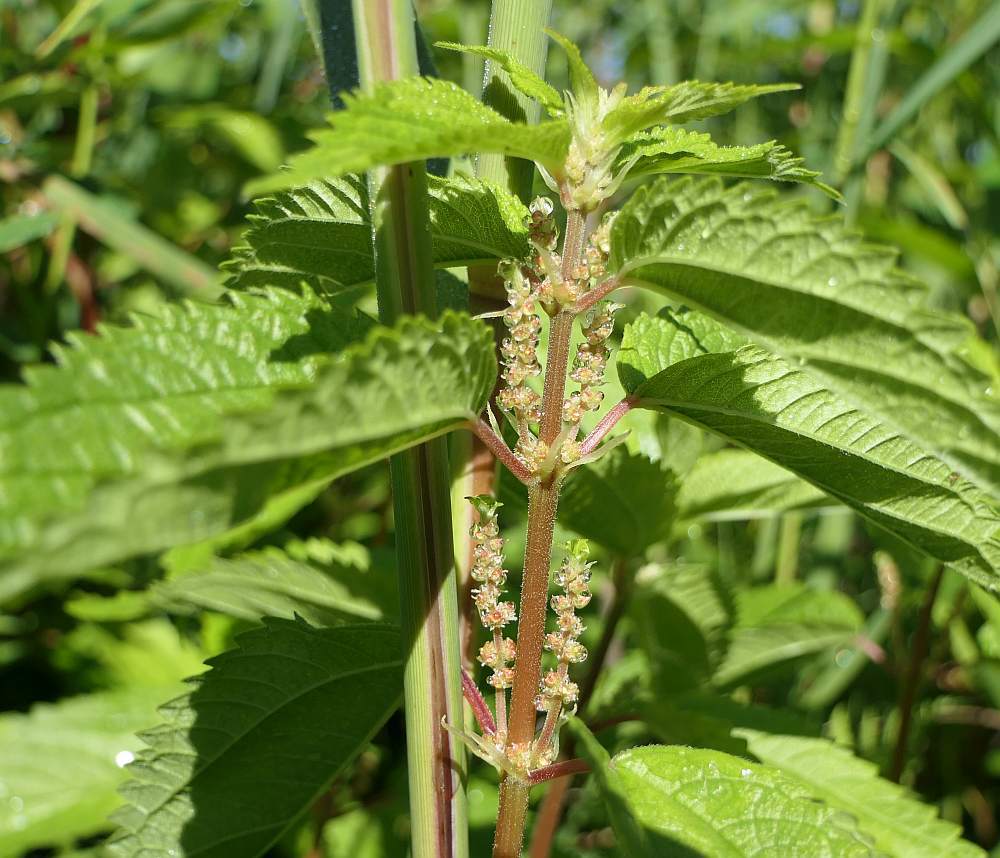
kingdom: Plantae
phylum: Tracheophyta
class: Magnoliopsida
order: Rosales
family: Urticaceae
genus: Boehmeria
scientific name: Boehmeria cylindrica
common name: Bog-hemp
